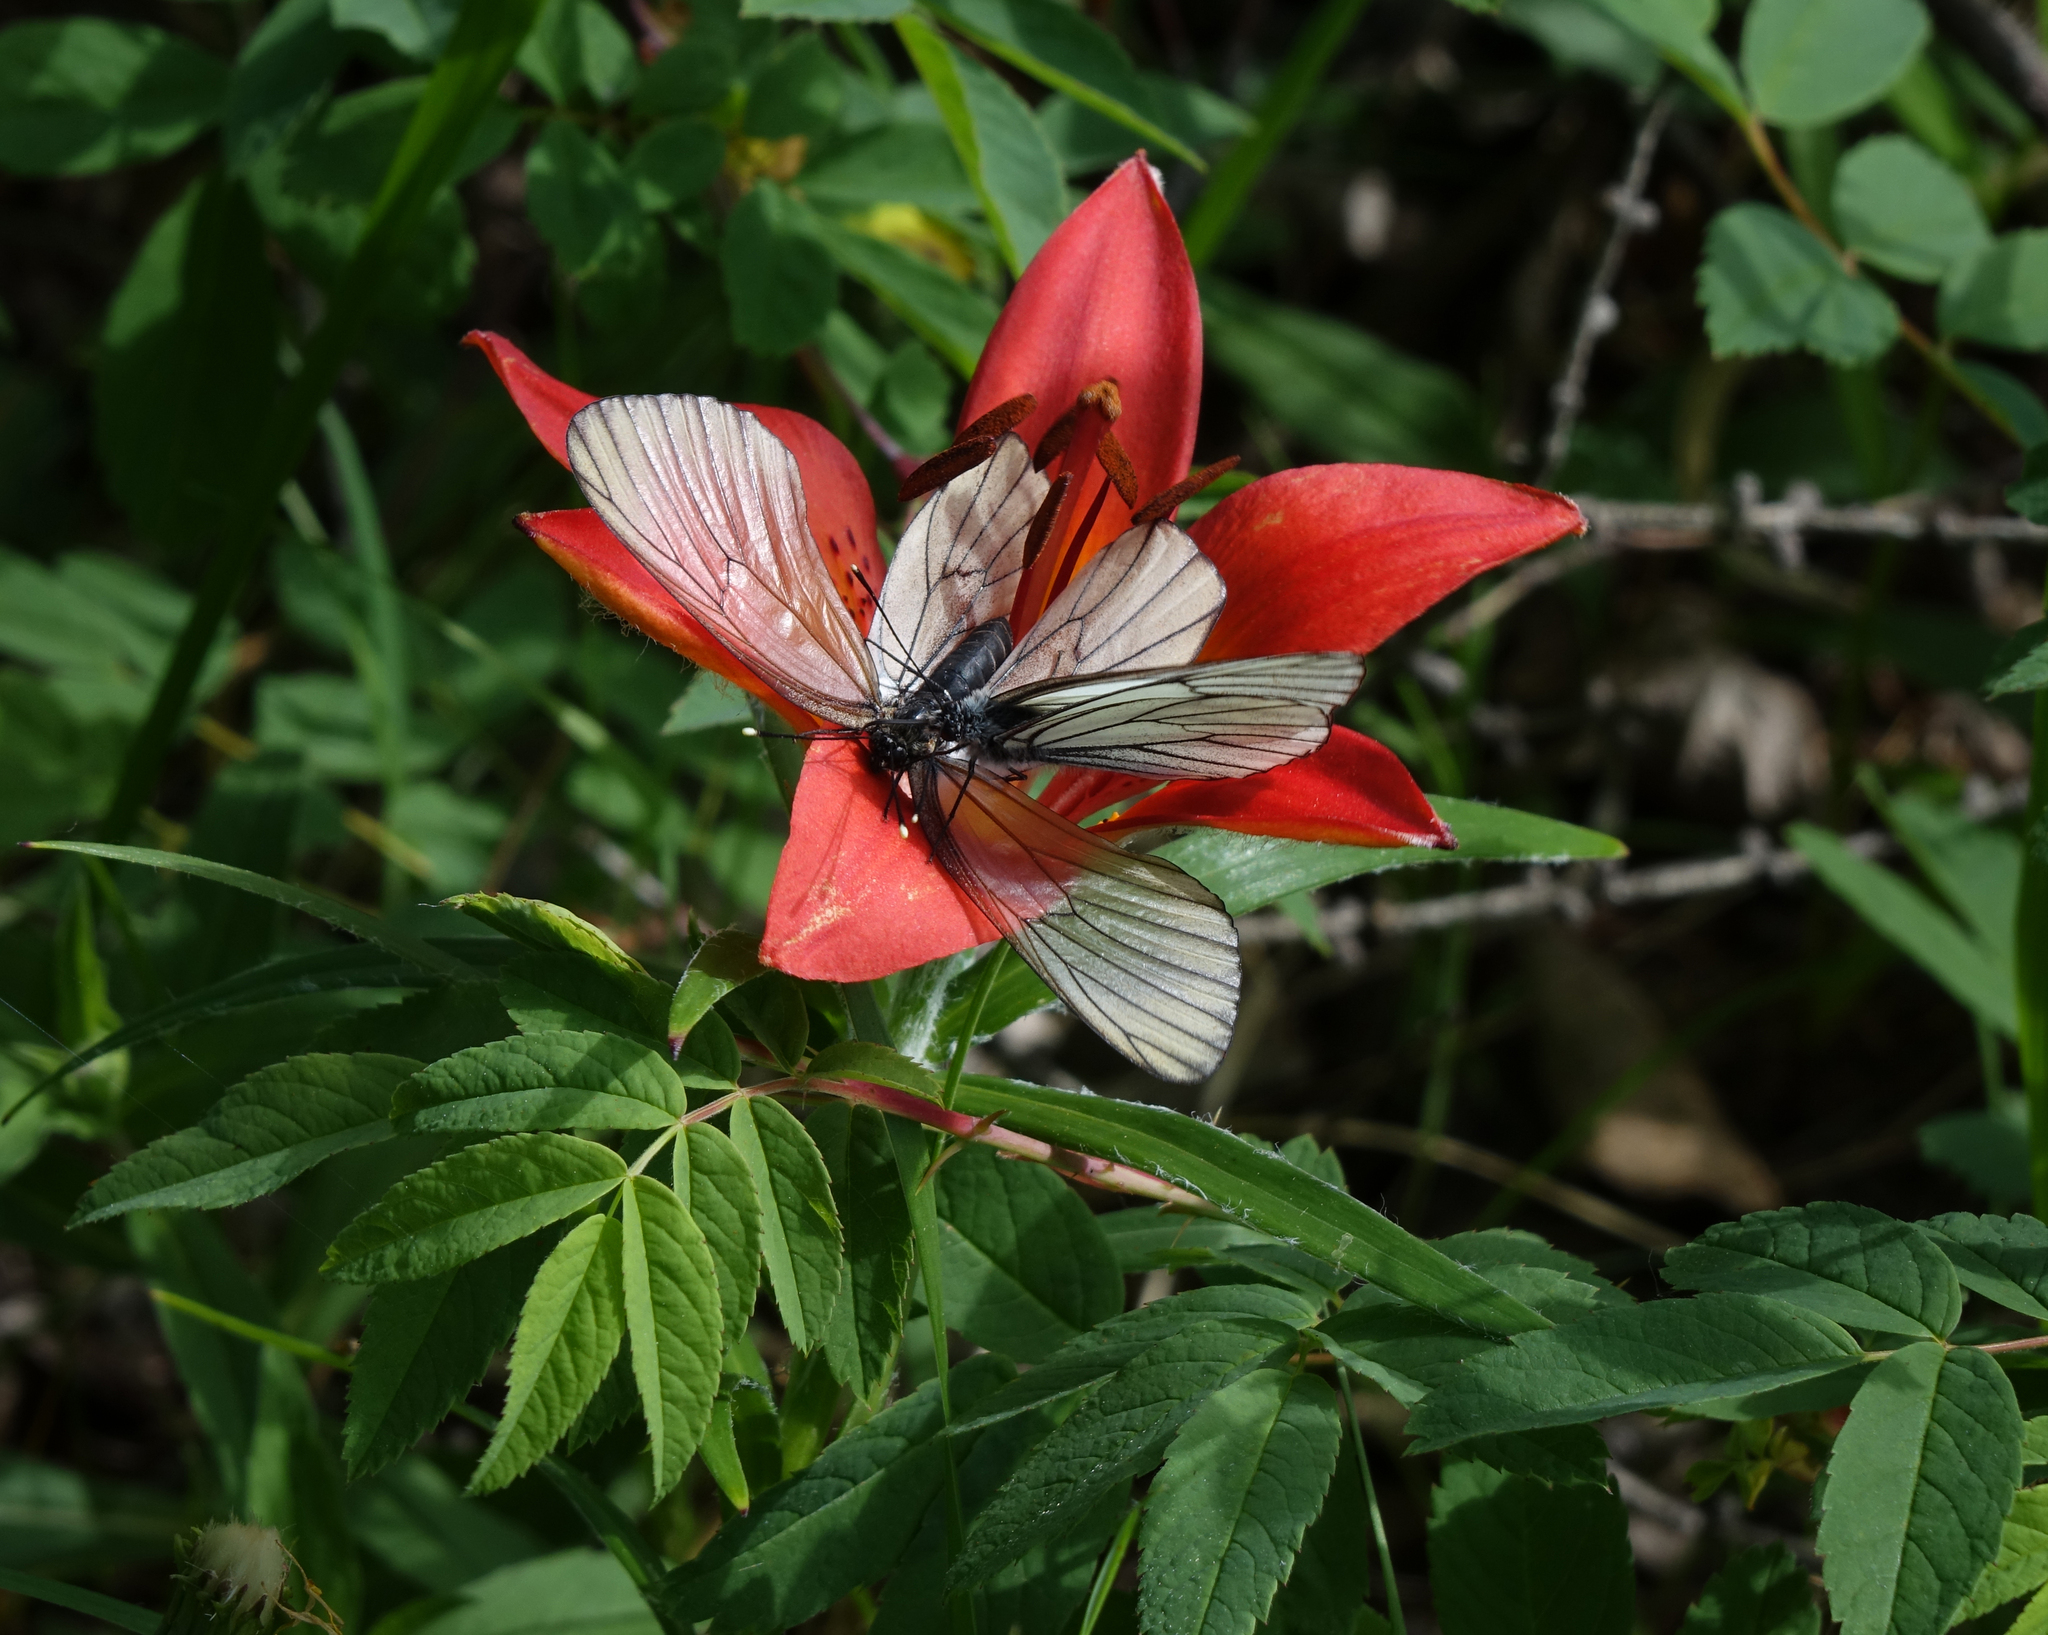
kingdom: Animalia
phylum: Arthropoda
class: Insecta
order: Lepidoptera
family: Pieridae
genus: Aporia
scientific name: Aporia crataegi
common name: Black-veined white
